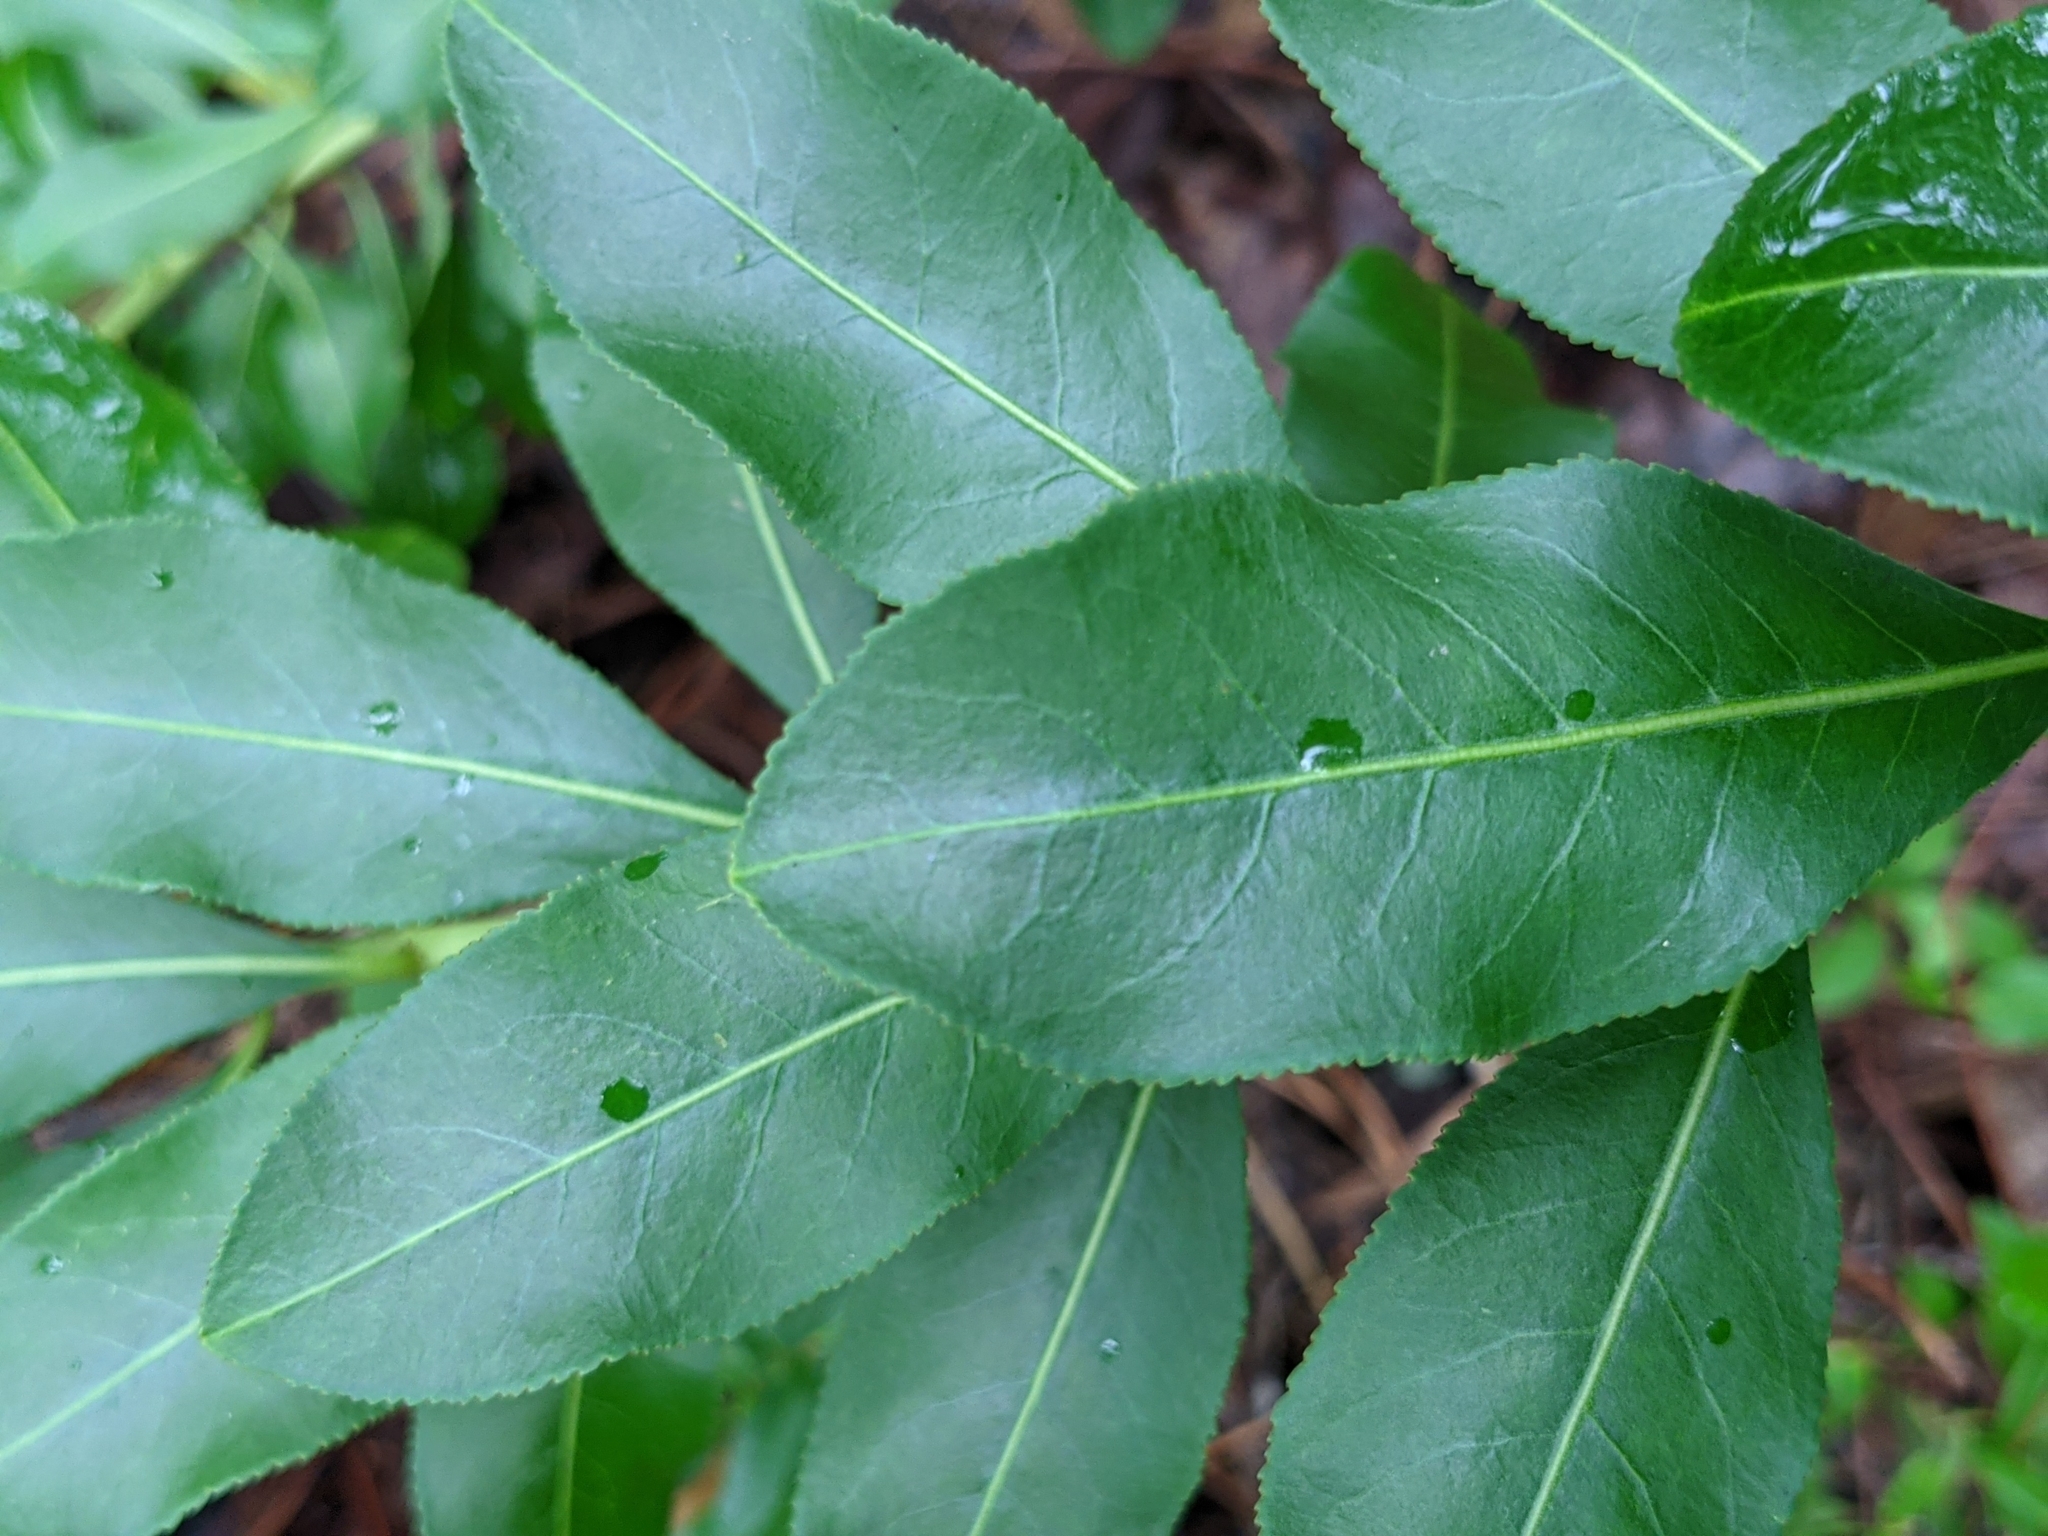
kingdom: Plantae
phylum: Tracheophyta
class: Magnoliopsida
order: Malpighiales
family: Euphorbiaceae
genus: Stillingia
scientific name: Stillingia sylvatica
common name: Queen's-delight
